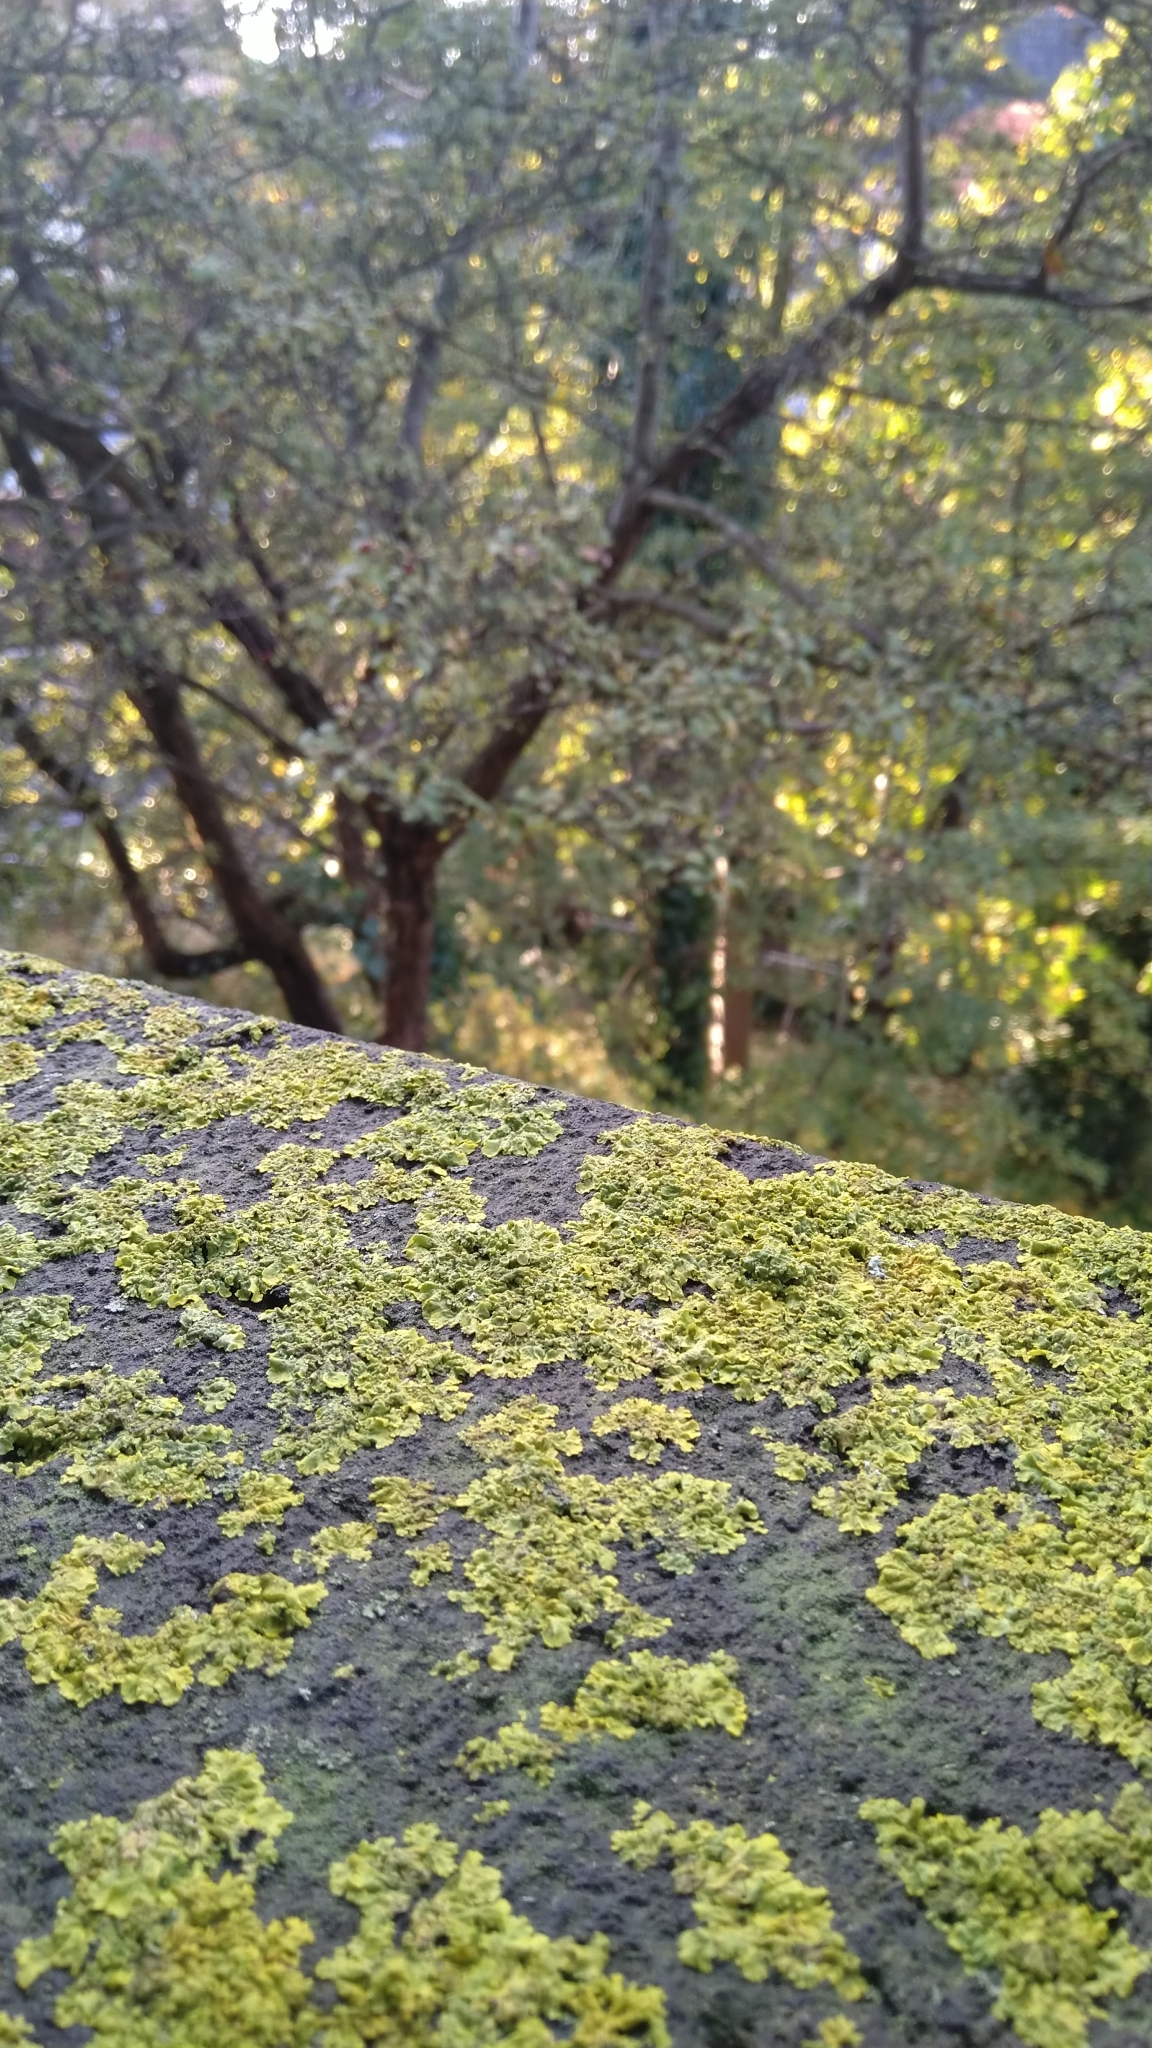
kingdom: Fungi
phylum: Ascomycota
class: Lecanoromycetes
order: Teloschistales
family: Teloschistaceae
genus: Xanthoria
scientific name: Xanthoria parietina
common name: Common orange lichen
